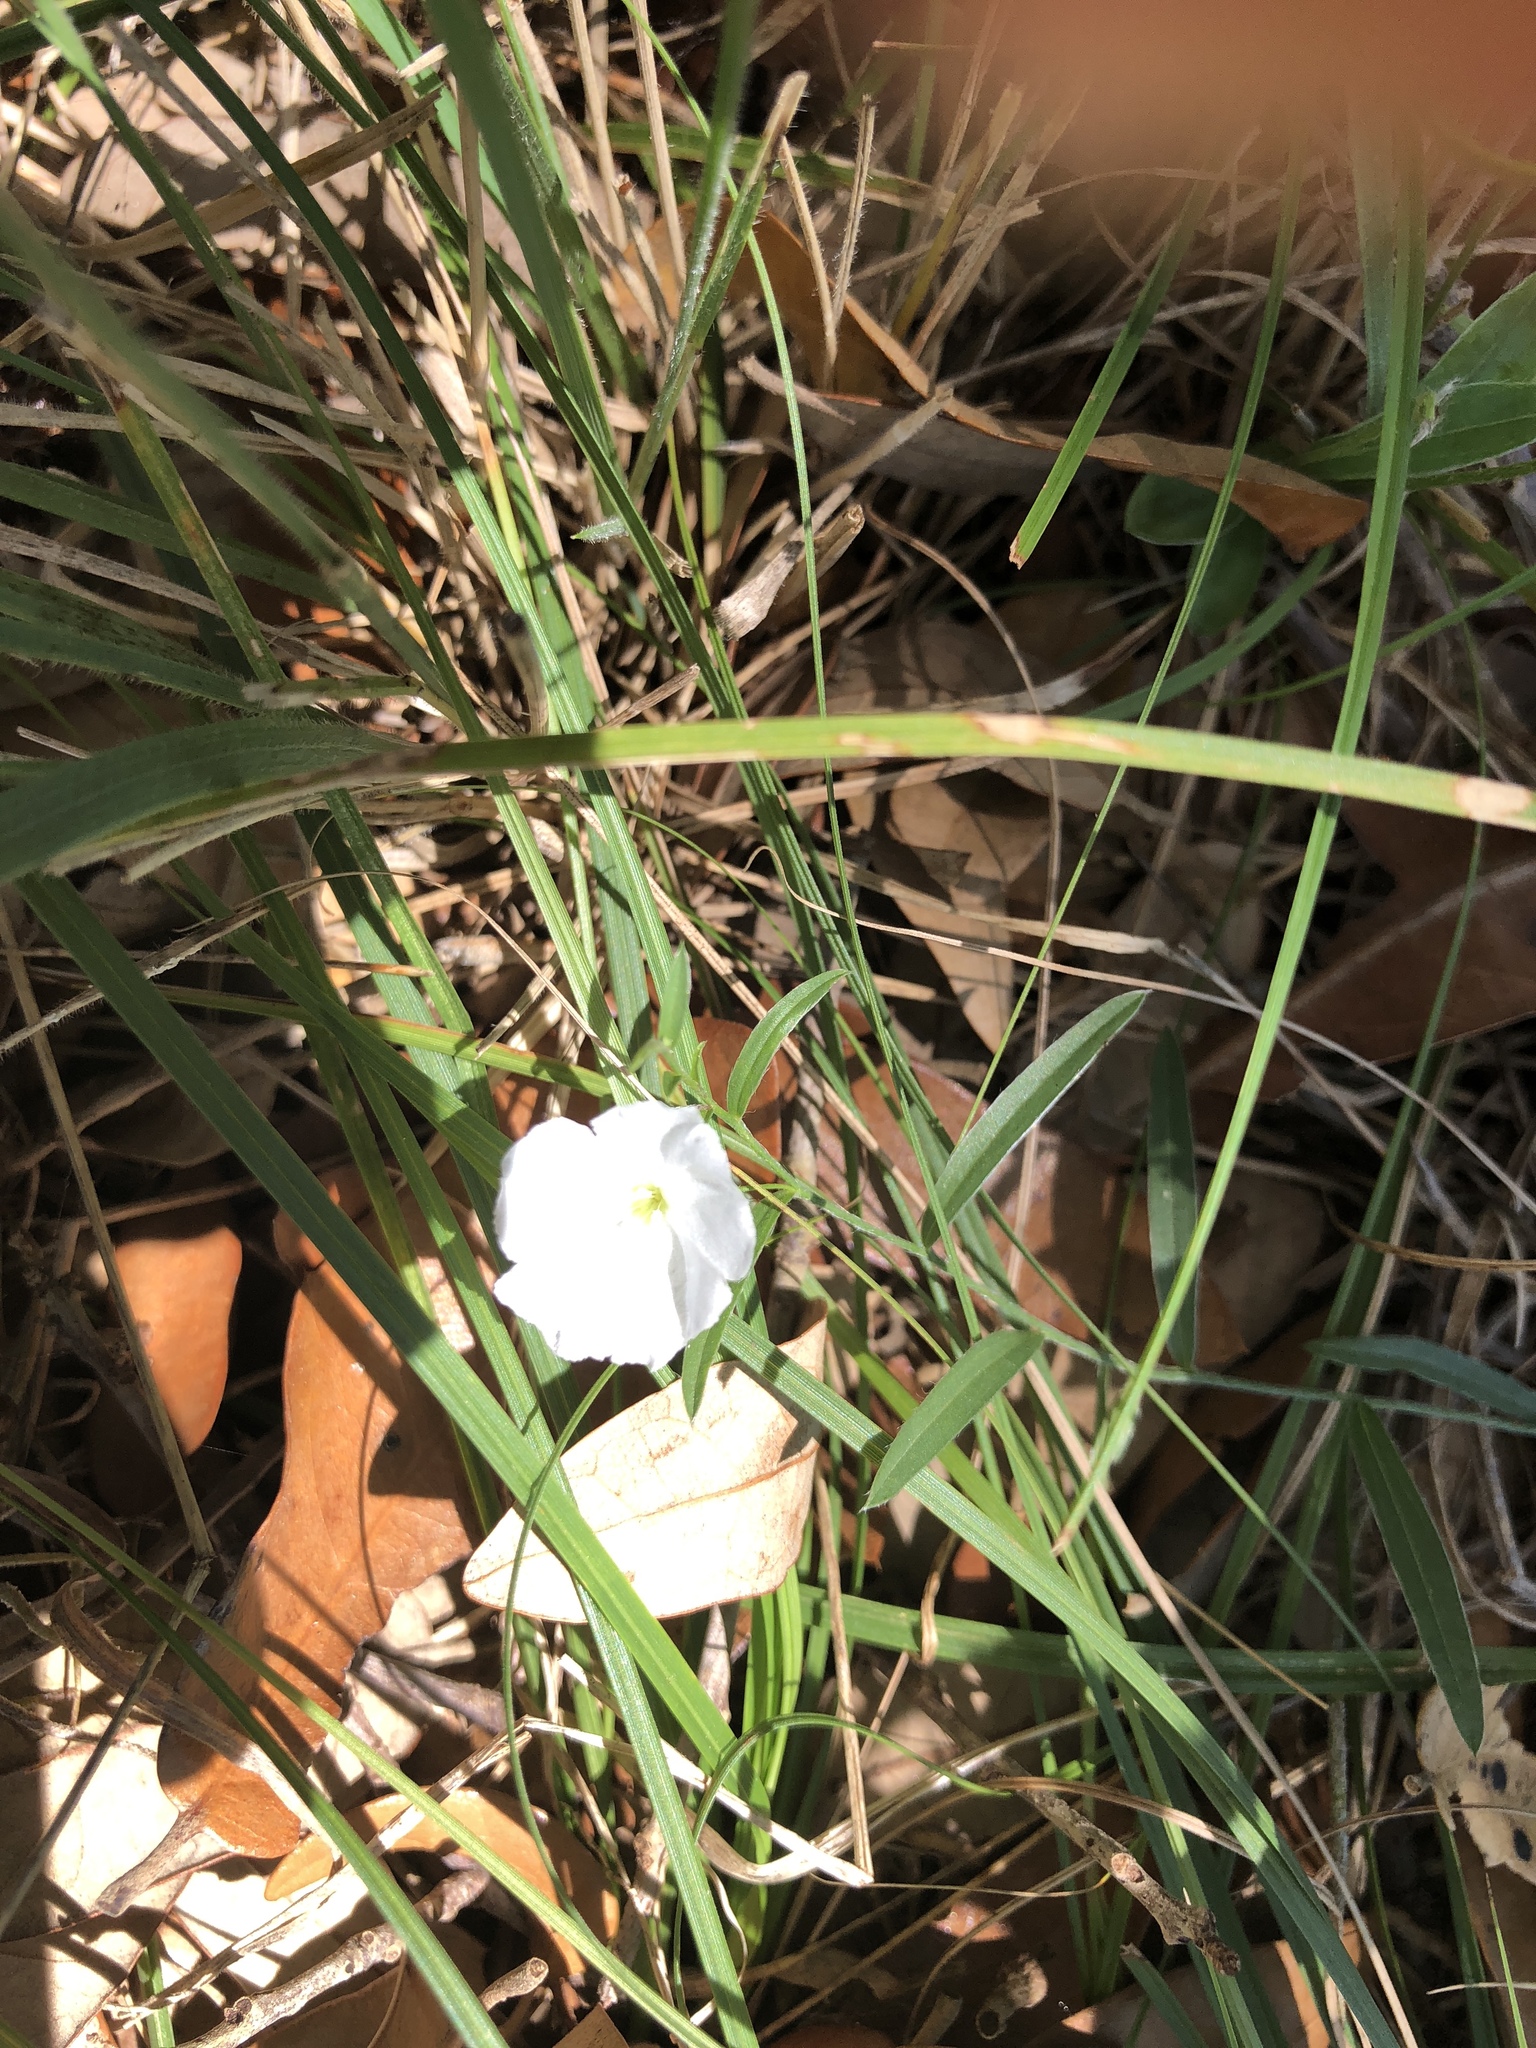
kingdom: Plantae
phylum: Tracheophyta
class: Magnoliopsida
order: Solanales
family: Convolvulaceae
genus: Evolvulus
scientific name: Evolvulus sericeus
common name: Blue dots
